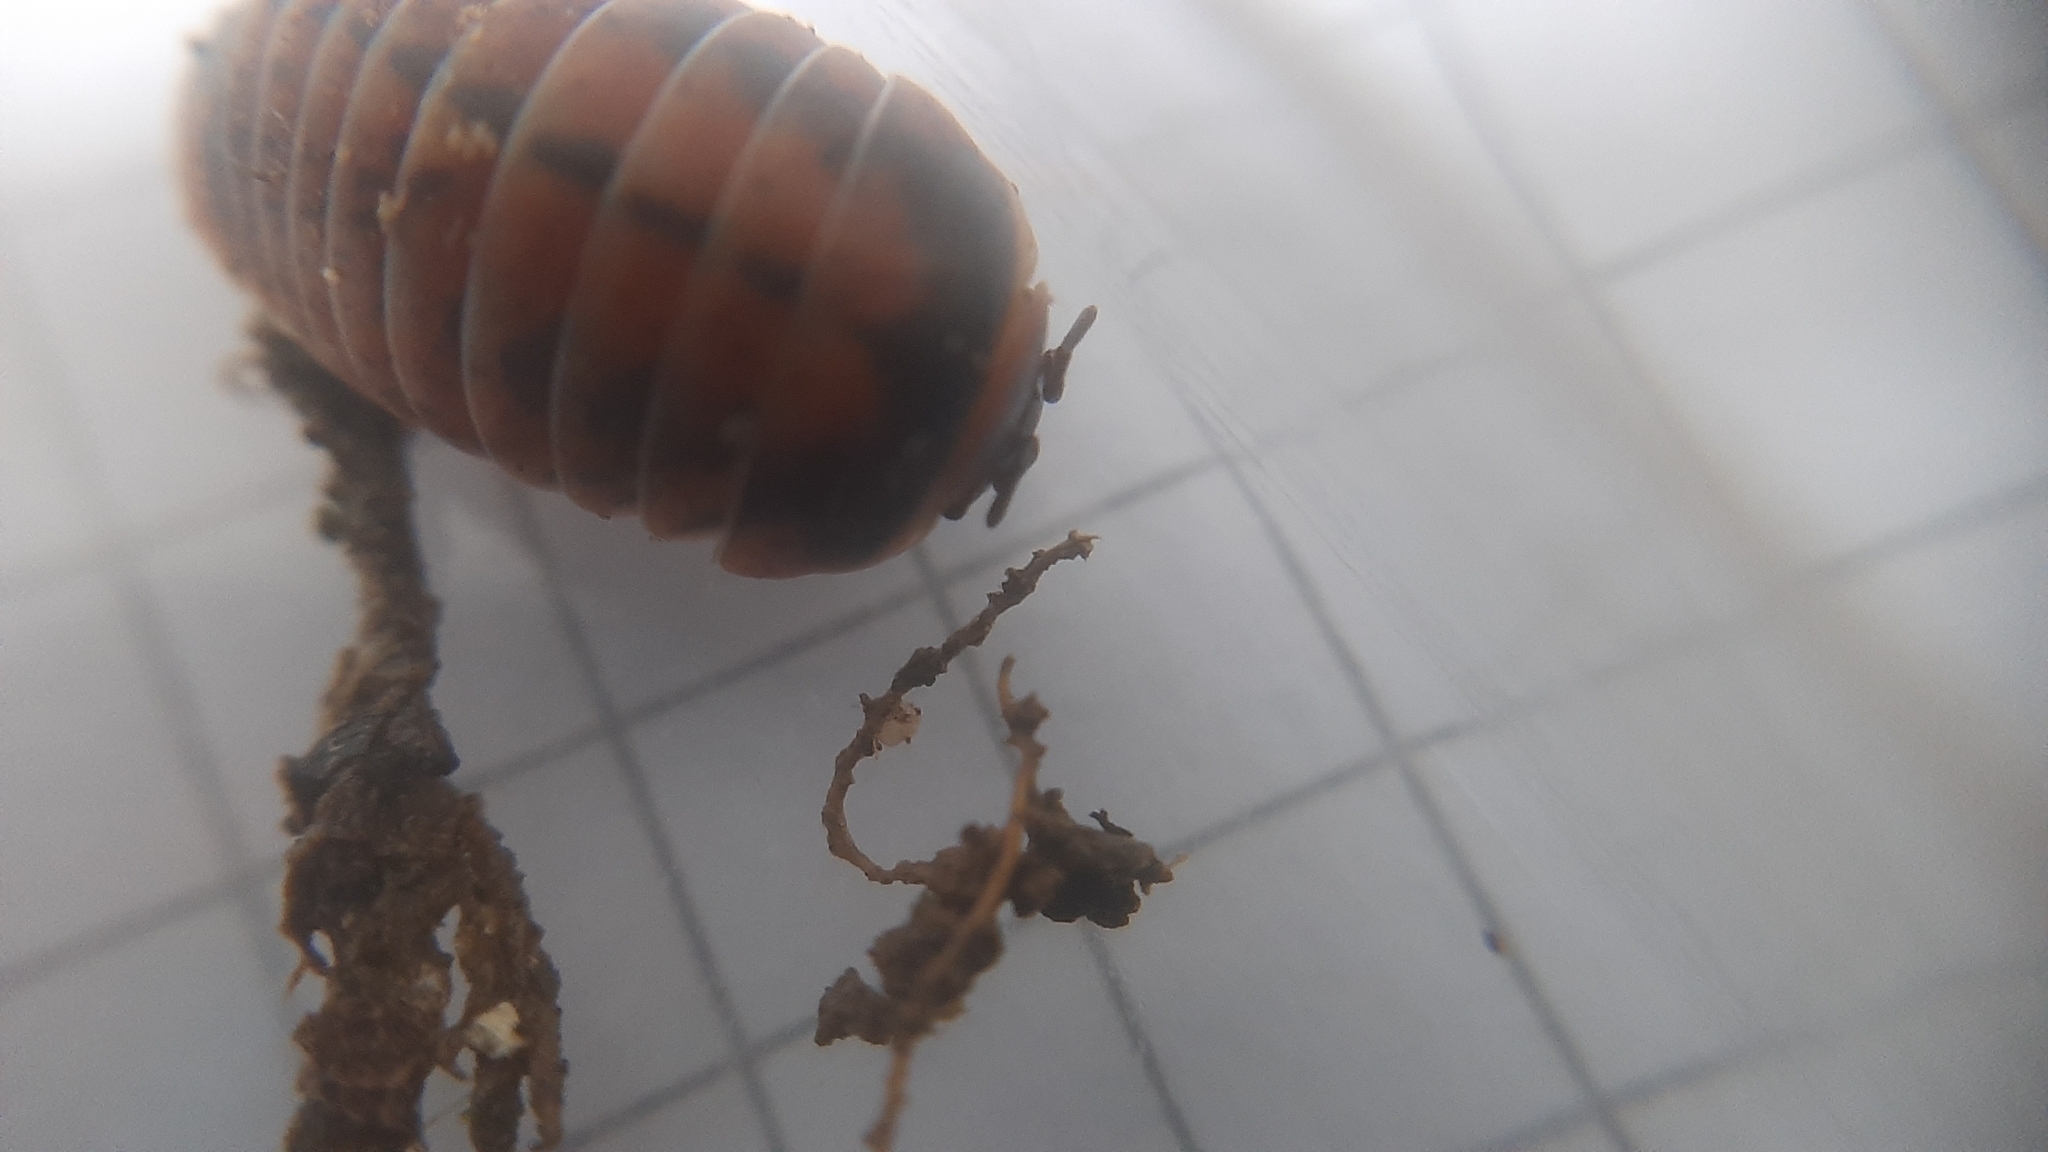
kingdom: Animalia
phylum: Arthropoda
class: Diplopoda
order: Glomerida
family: Glomeridae
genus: Glomeris
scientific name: Glomeris klugii
